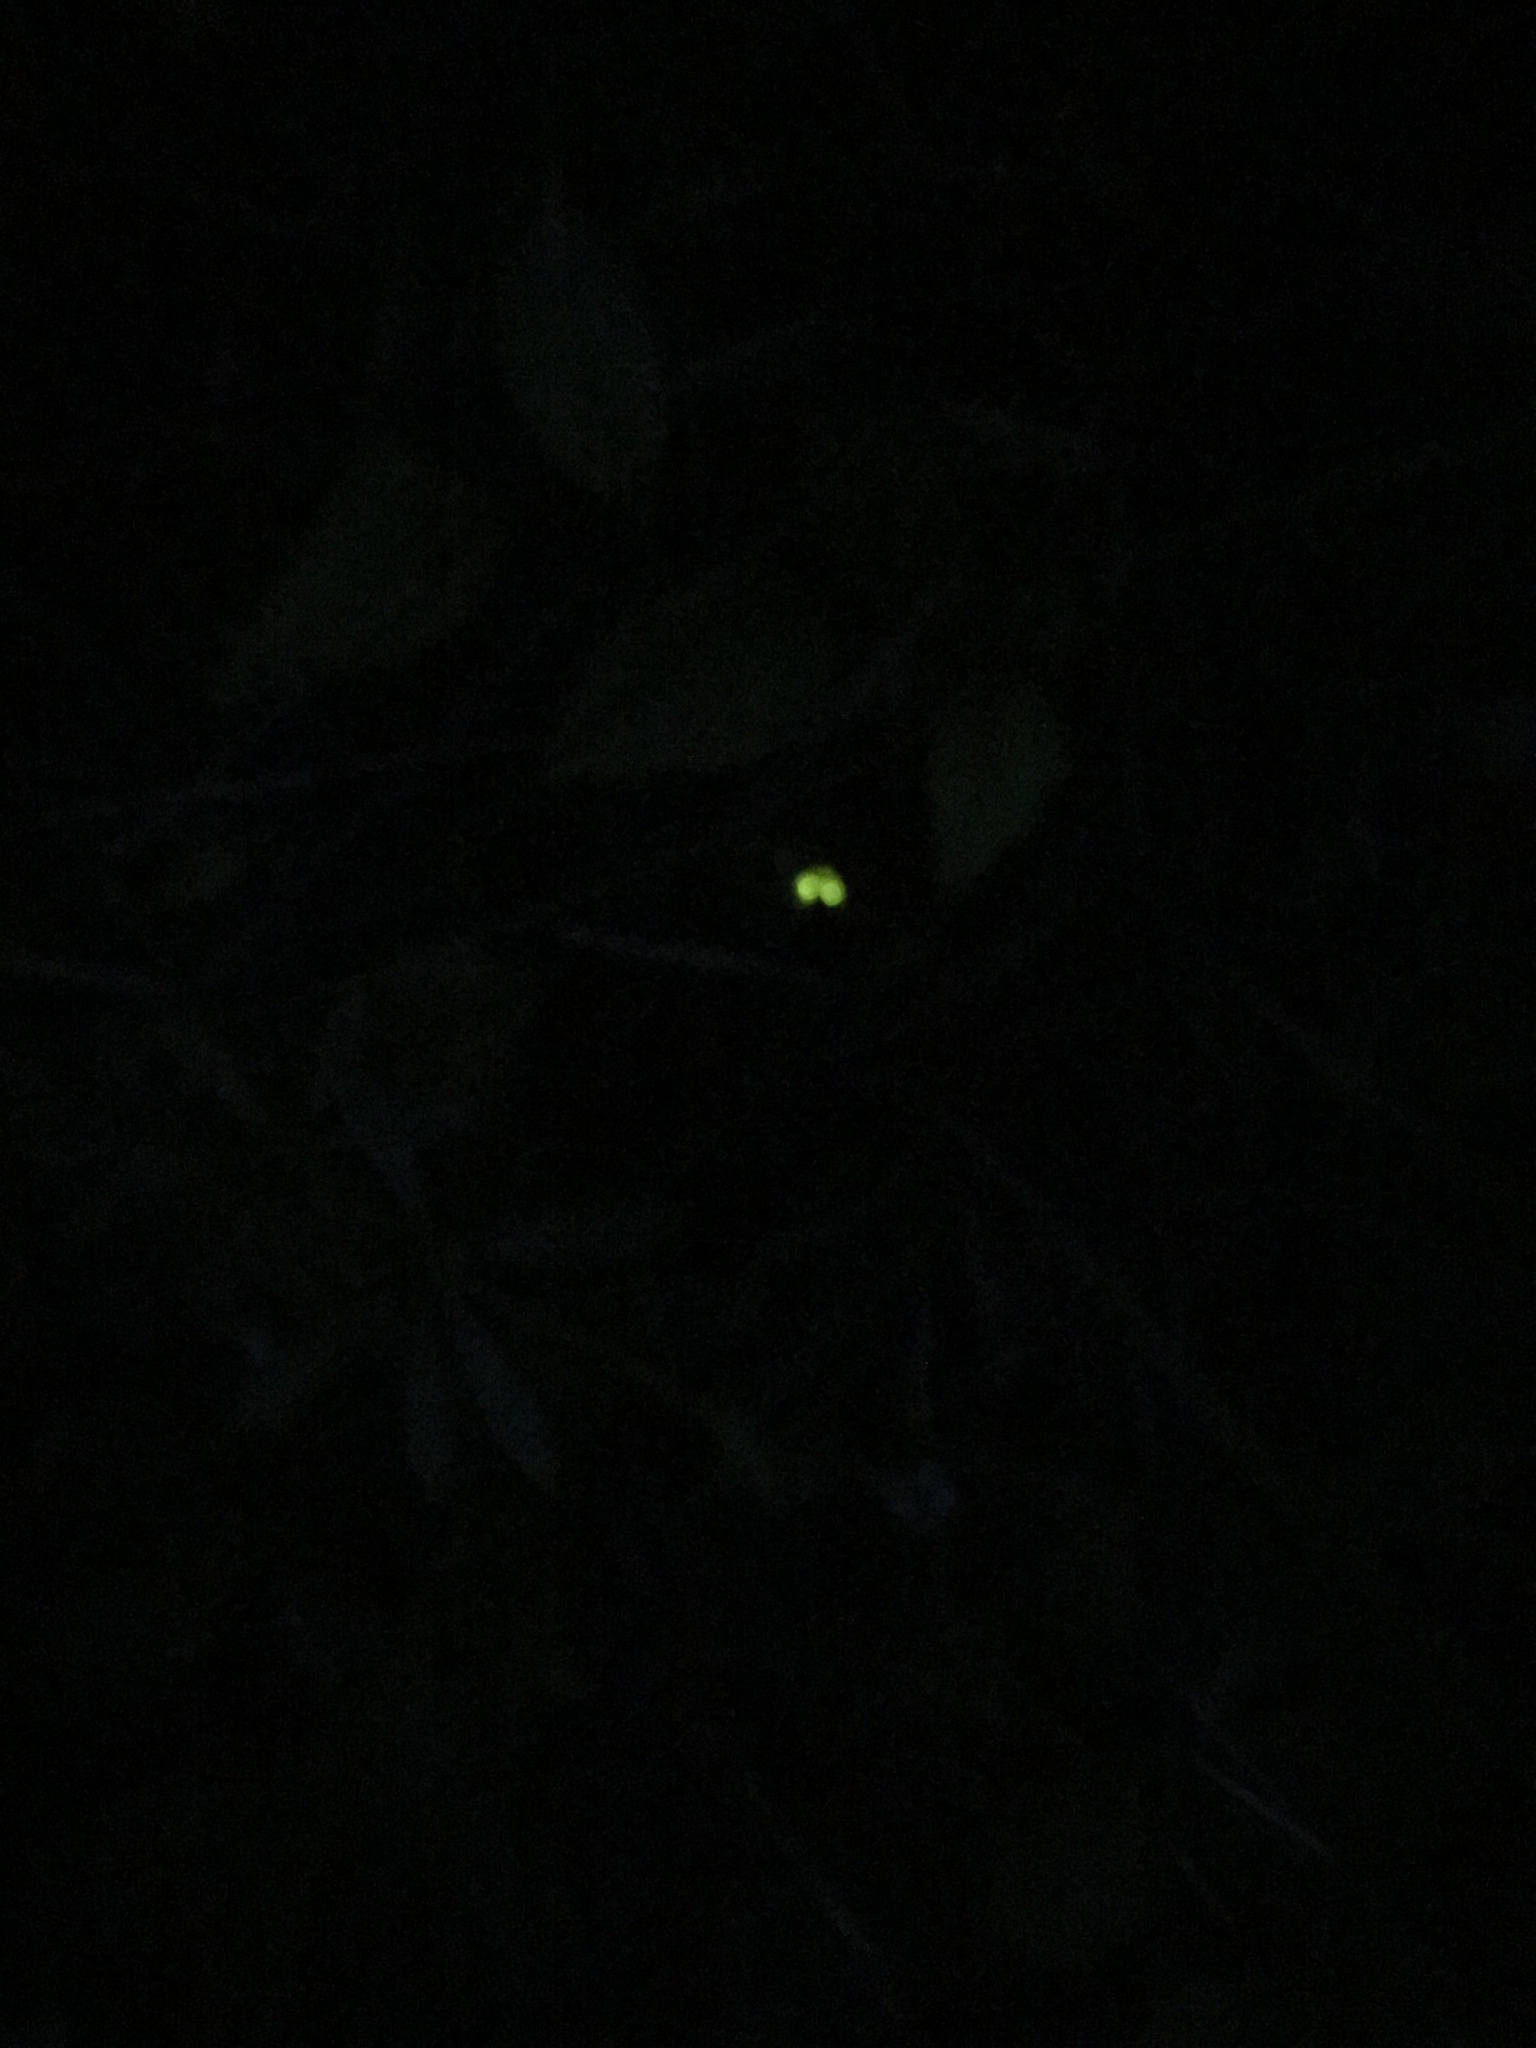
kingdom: Animalia
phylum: Arthropoda
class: Insecta
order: Coleoptera
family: Lampyridae
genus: Lampyris
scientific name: Lampyris noctiluca
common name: Glow-worm
